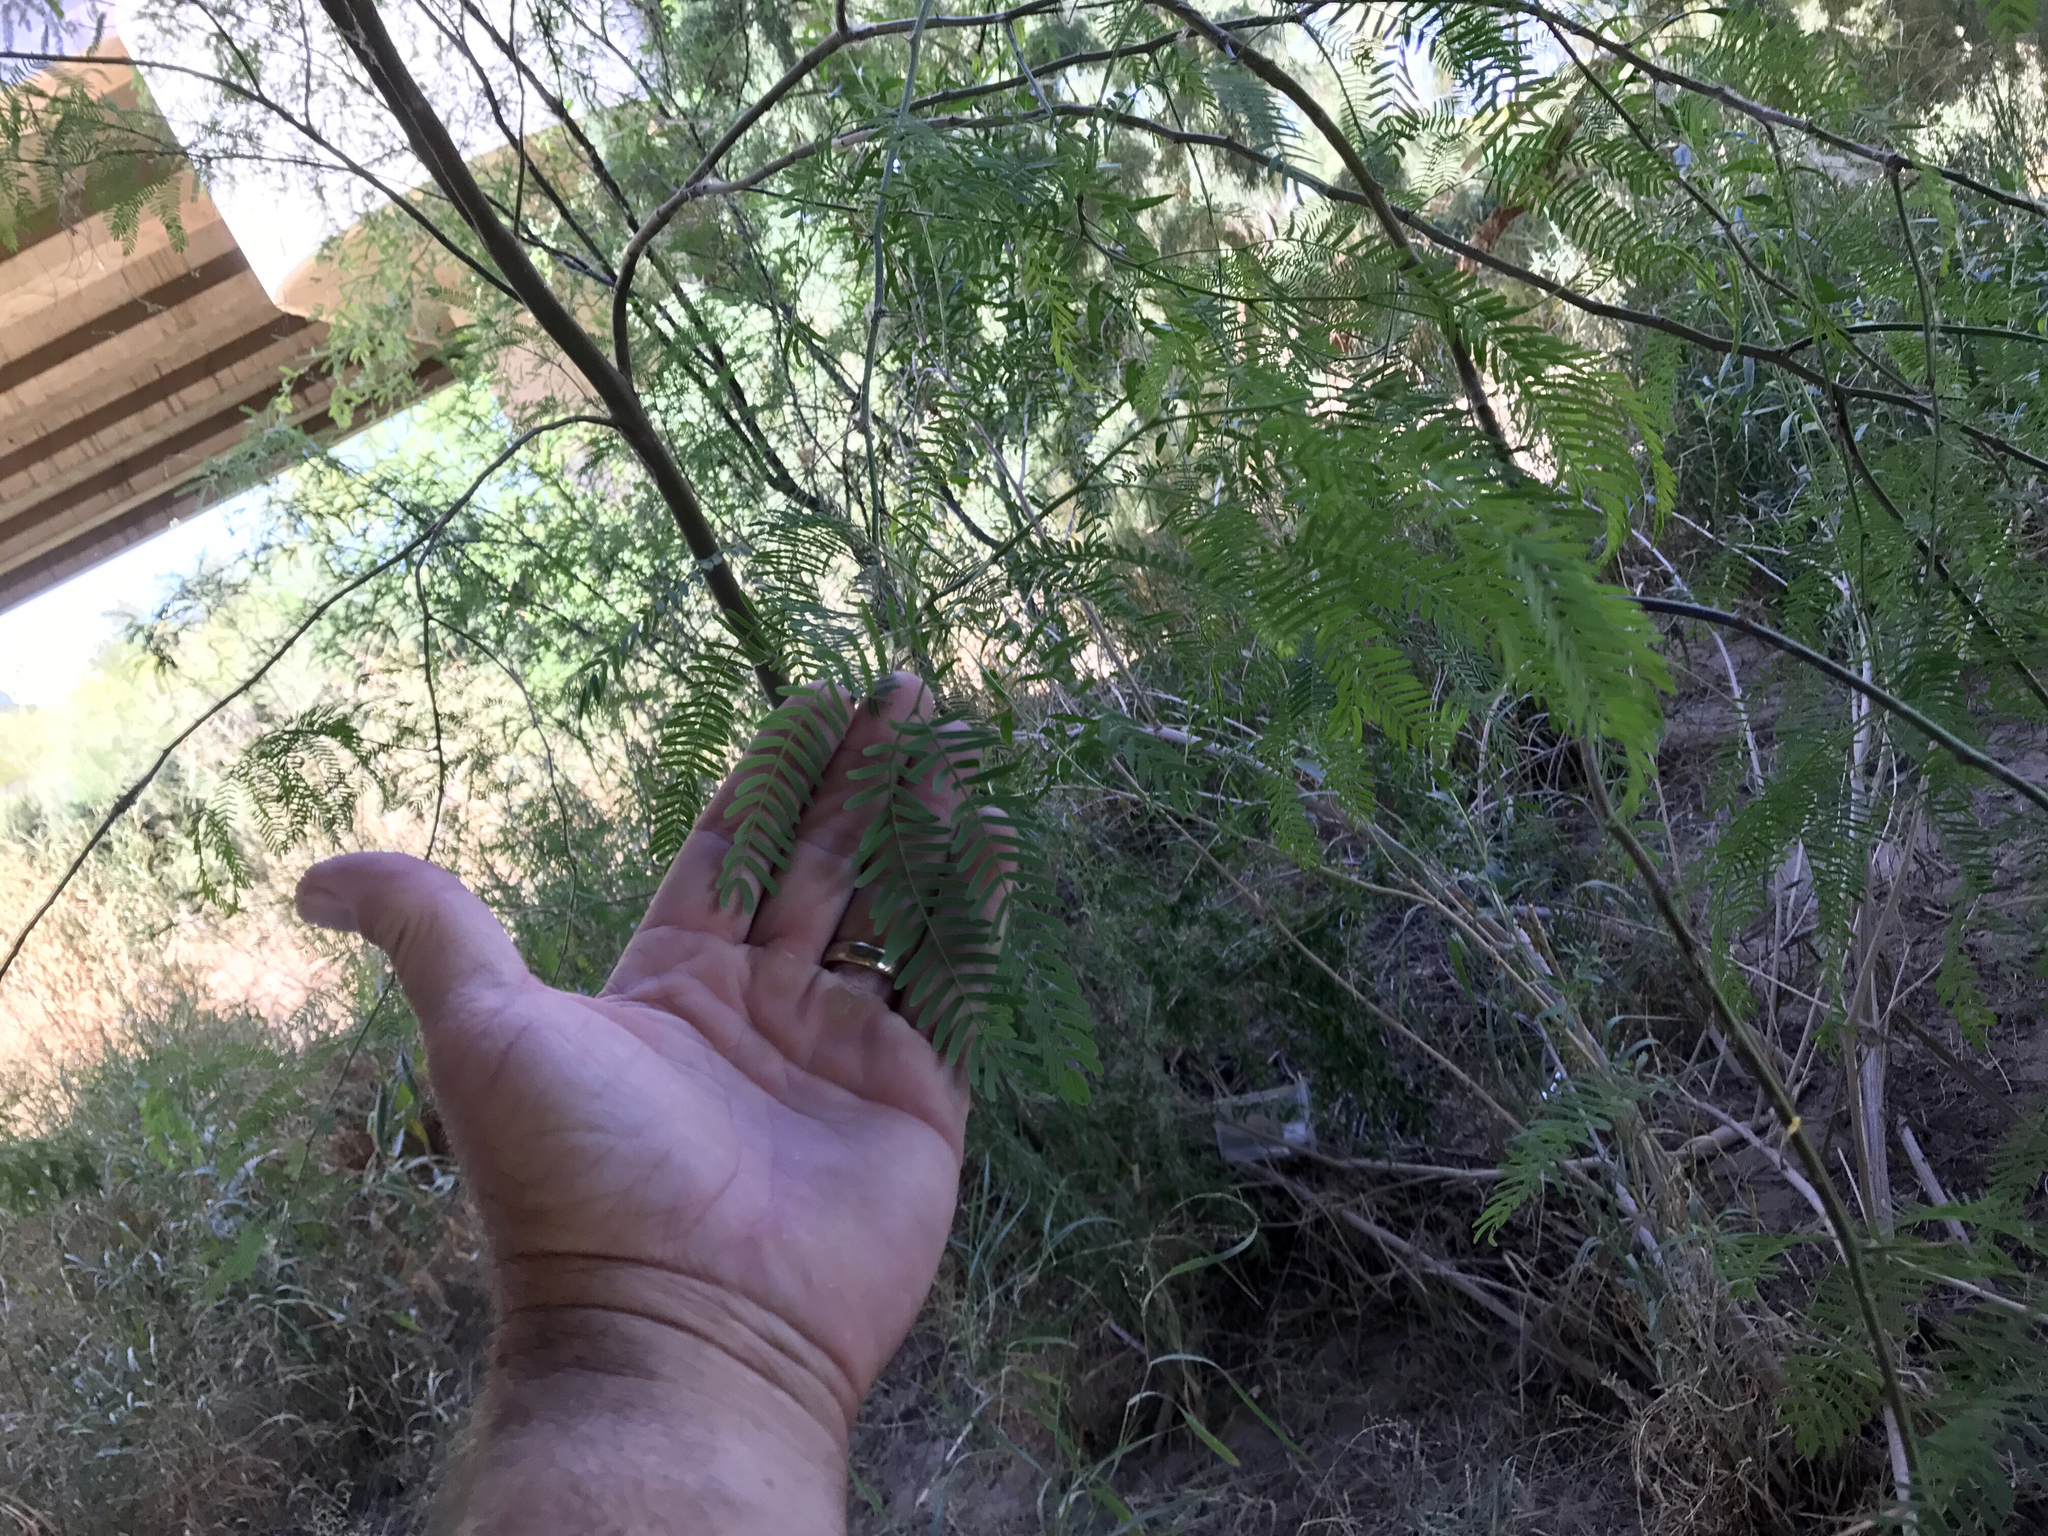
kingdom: Plantae
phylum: Tracheophyta
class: Magnoliopsida
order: Fabales
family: Fabaceae
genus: Prosopis
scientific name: Prosopis glandulosa
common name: Honey mesquite
